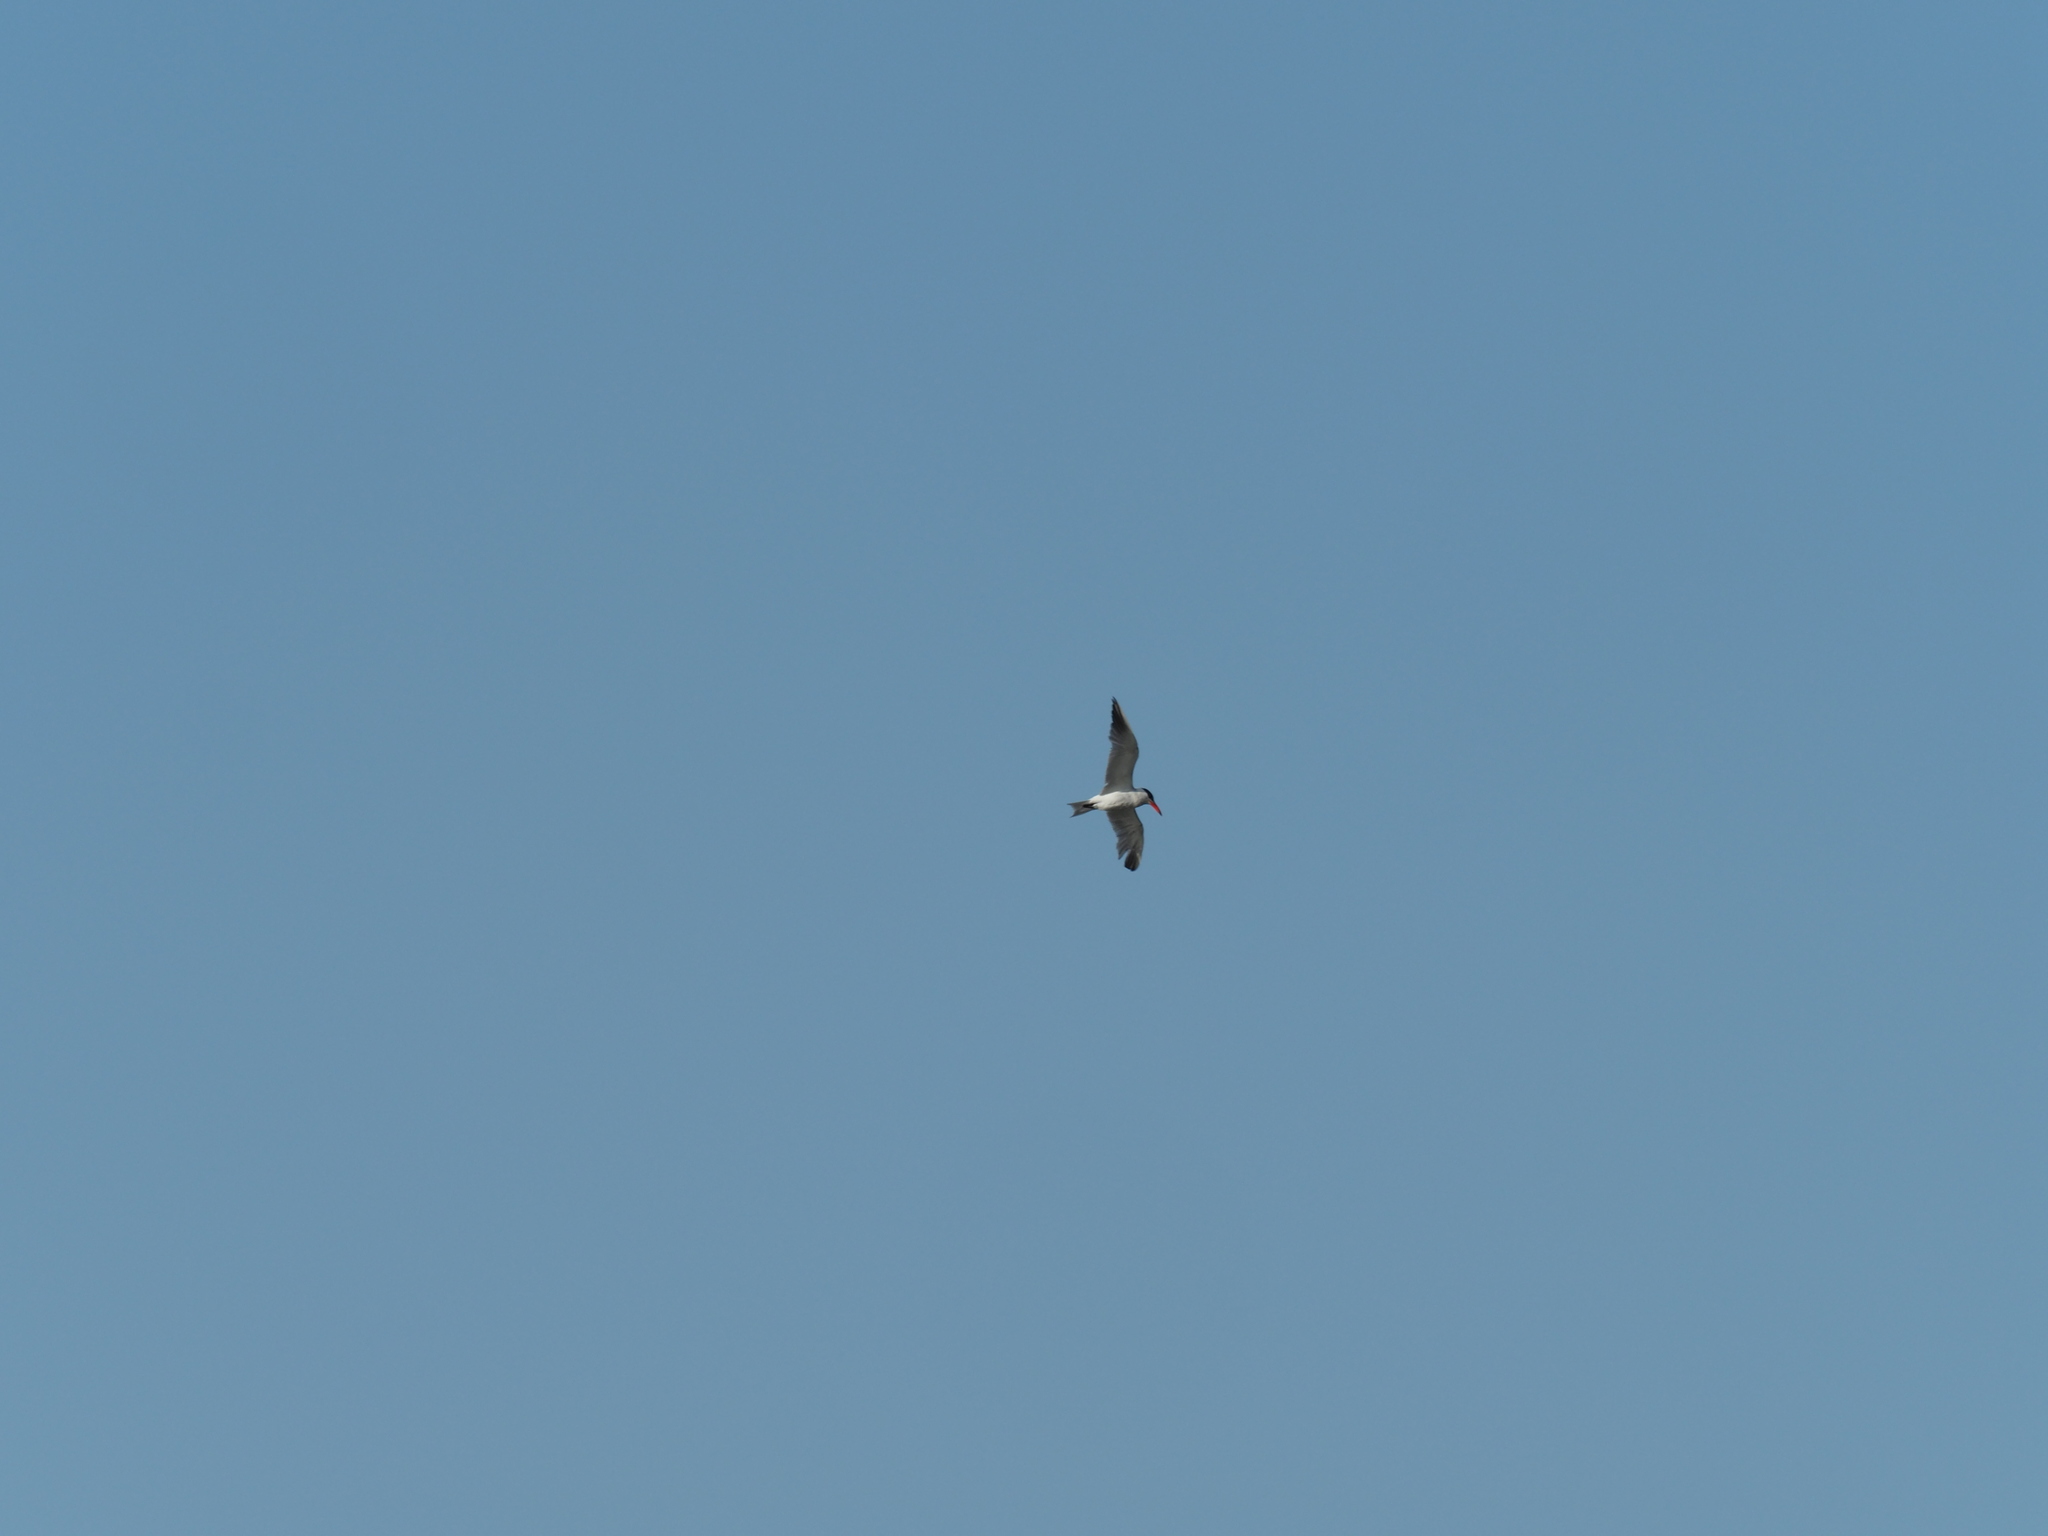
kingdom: Animalia
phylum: Chordata
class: Aves
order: Charadriiformes
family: Laridae
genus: Hydroprogne
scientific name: Hydroprogne caspia
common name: Caspian tern
